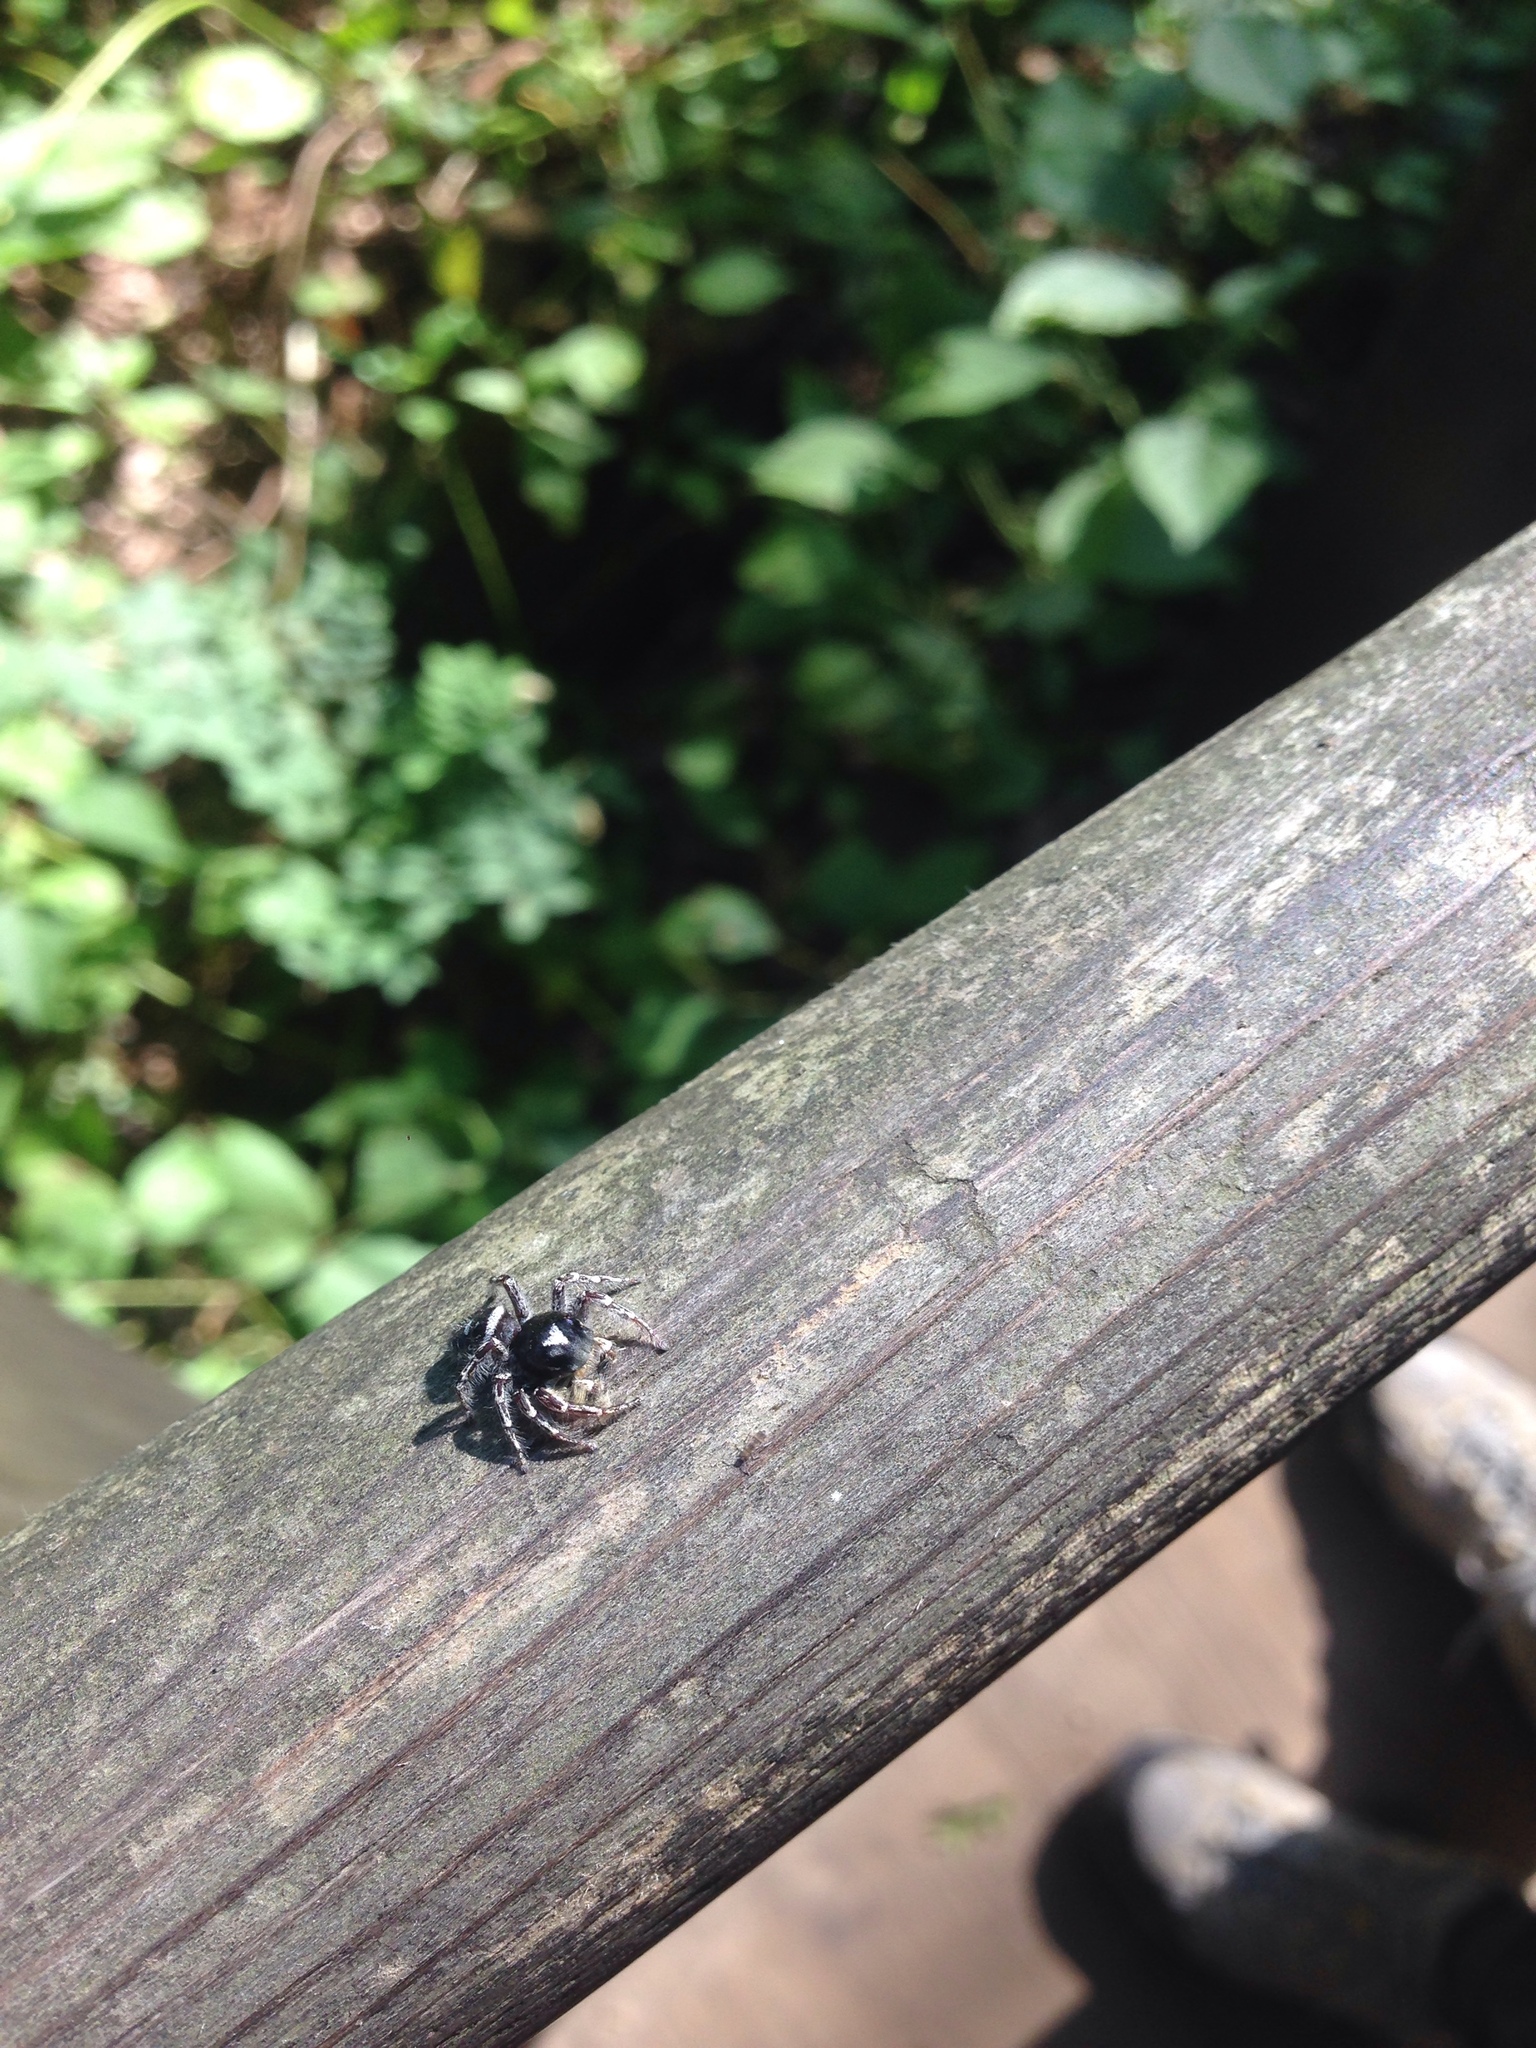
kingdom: Animalia
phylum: Arthropoda
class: Arachnida
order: Araneae
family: Salticidae
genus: Phidippus
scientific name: Phidippus putnami
